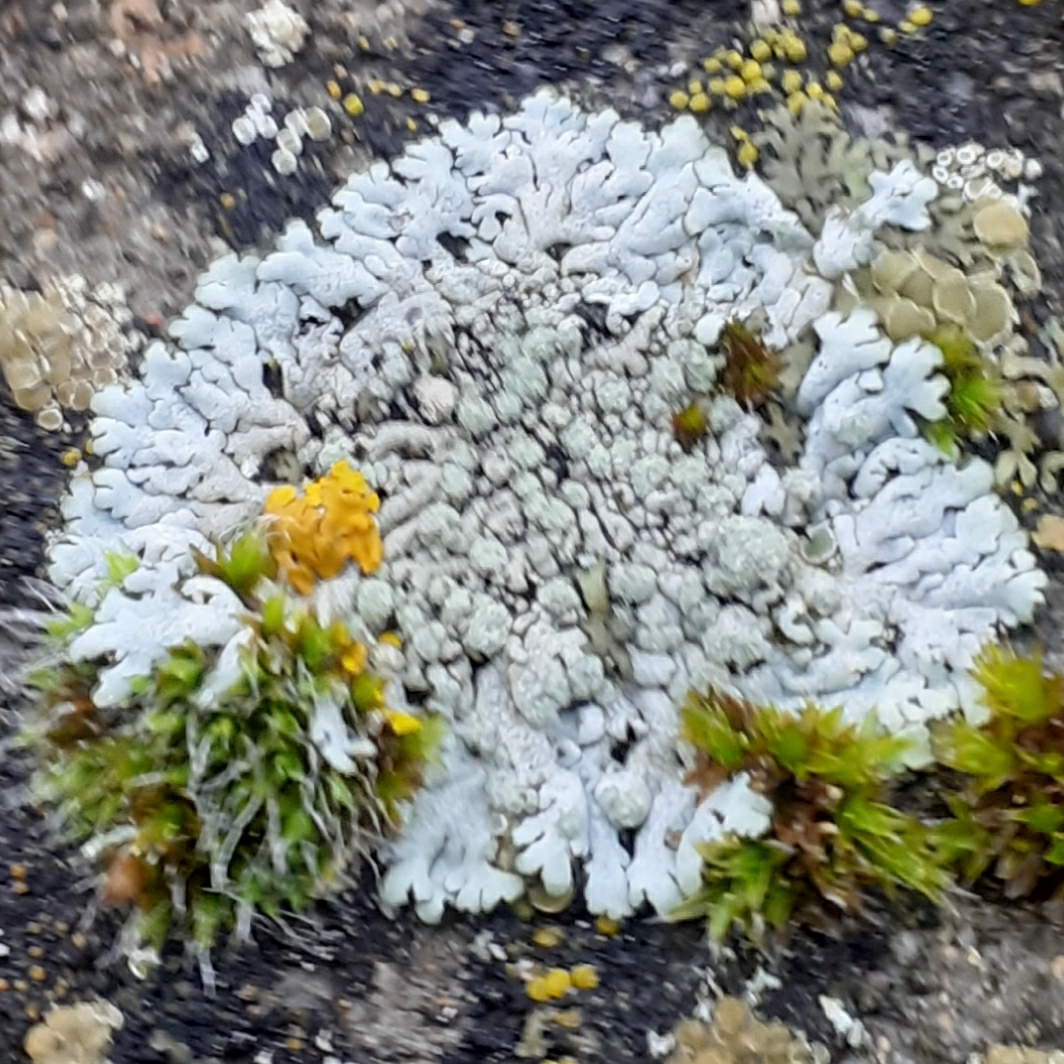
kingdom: Fungi
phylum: Ascomycota
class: Lecanoromycetes
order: Caliciales
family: Physciaceae
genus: Physcia
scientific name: Physcia caesia
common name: Blue-gray rosette lichen
